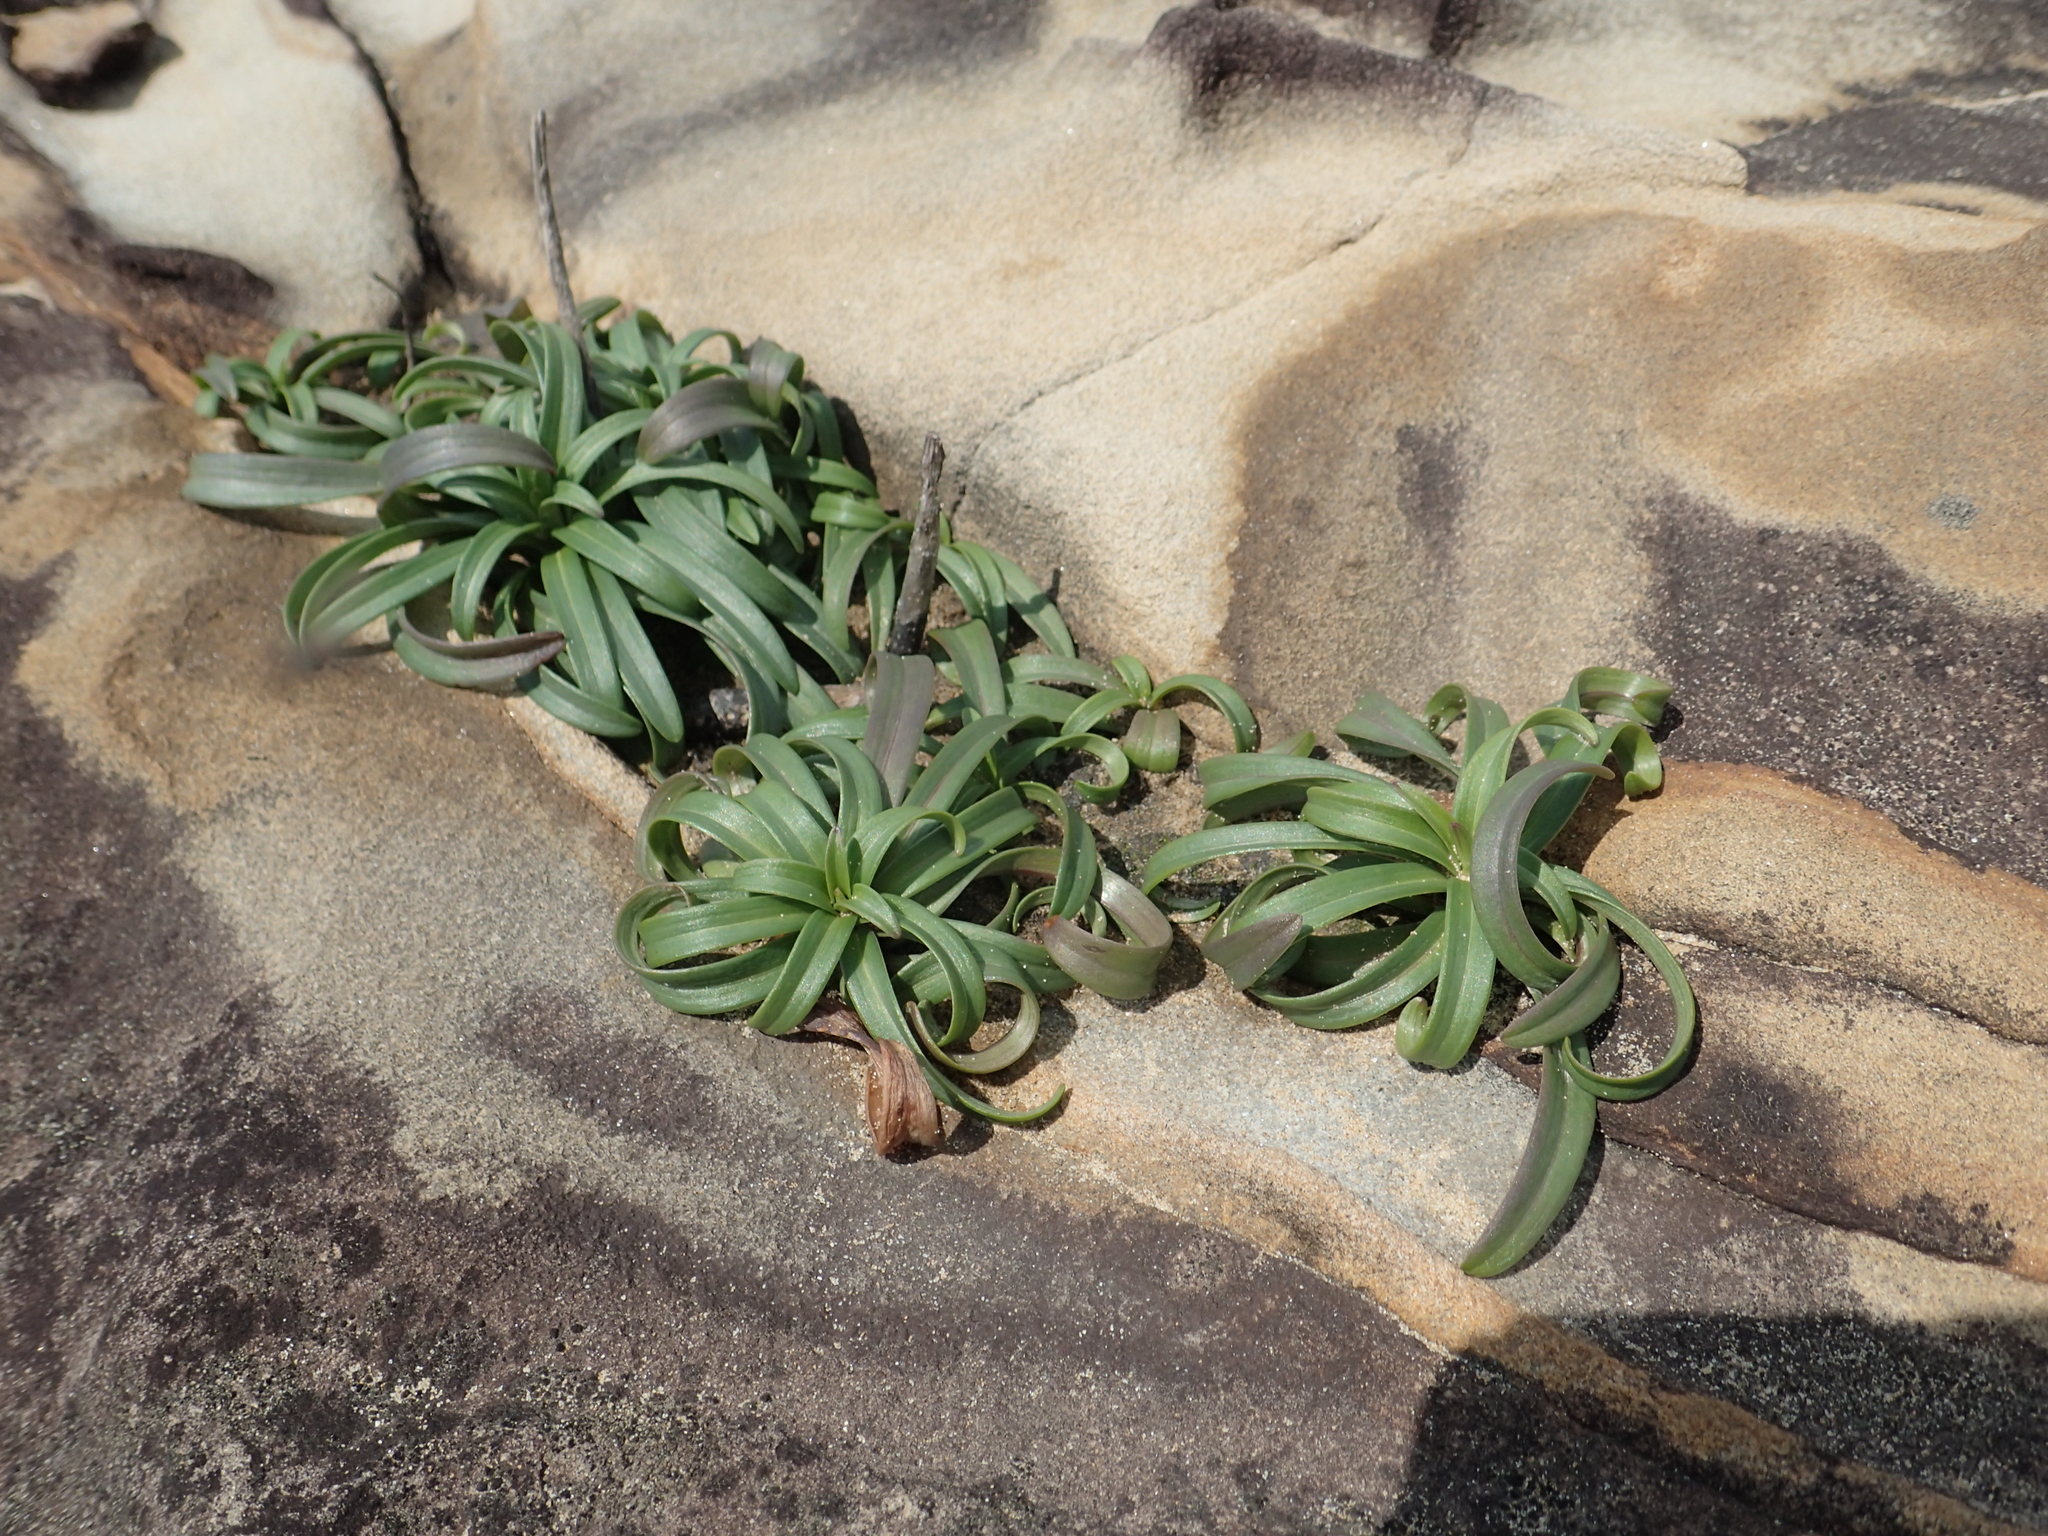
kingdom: Plantae
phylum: Tracheophyta
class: Liliopsida
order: Liliales
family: Liliaceae
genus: Lilium
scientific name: Lilium longiflorum
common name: Easter lily
